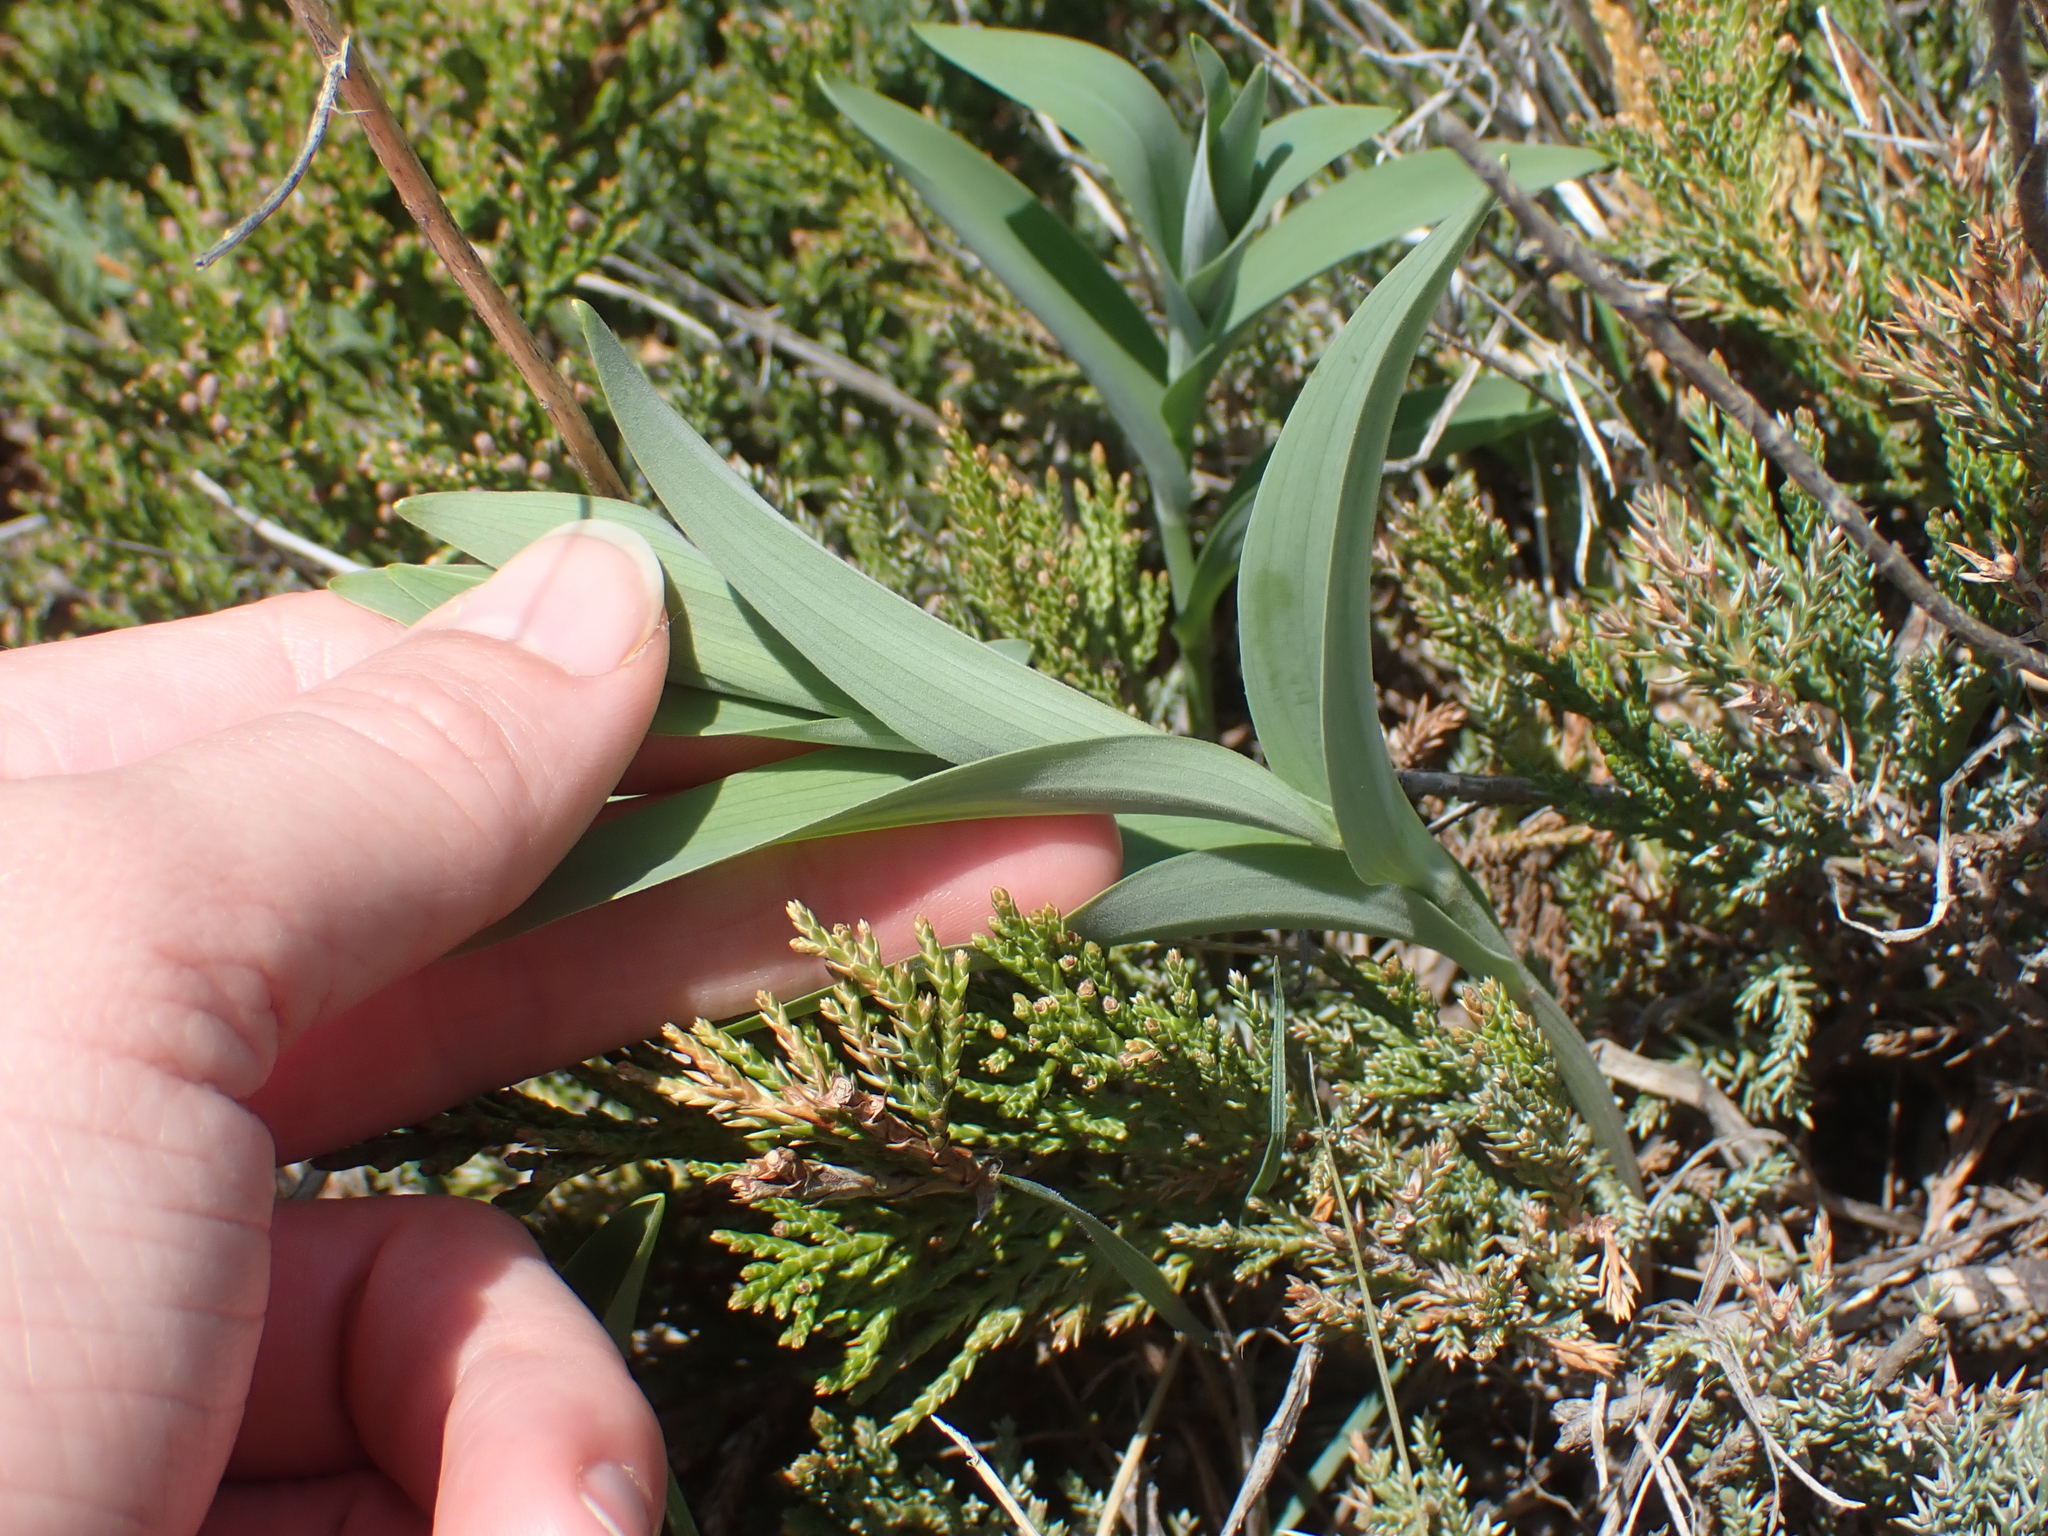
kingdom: Plantae
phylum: Tracheophyta
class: Liliopsida
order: Asparagales
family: Asparagaceae
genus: Maianthemum
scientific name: Maianthemum stellatum
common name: Little false solomon's seal
